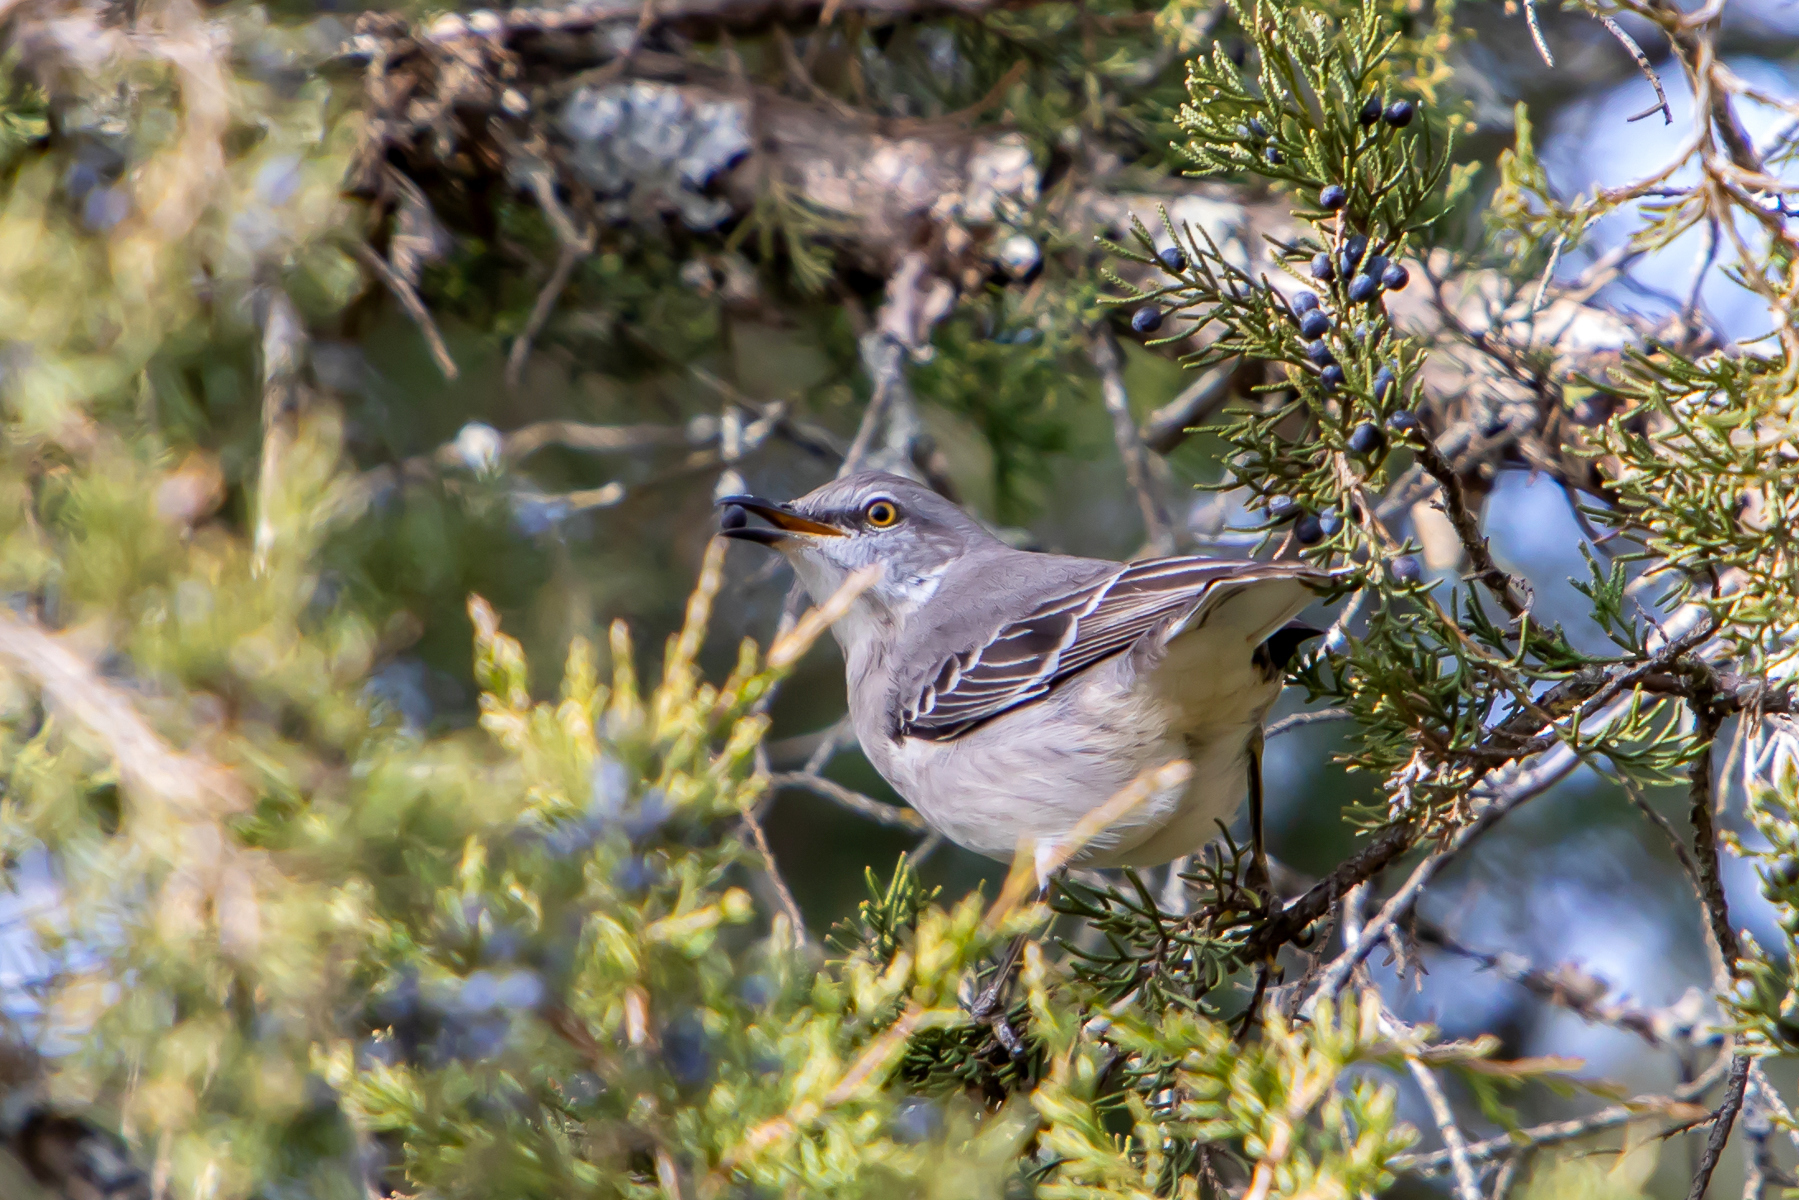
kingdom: Animalia
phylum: Chordata
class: Aves
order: Passeriformes
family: Mimidae
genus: Mimus
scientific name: Mimus polyglottos
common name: Northern mockingbird
